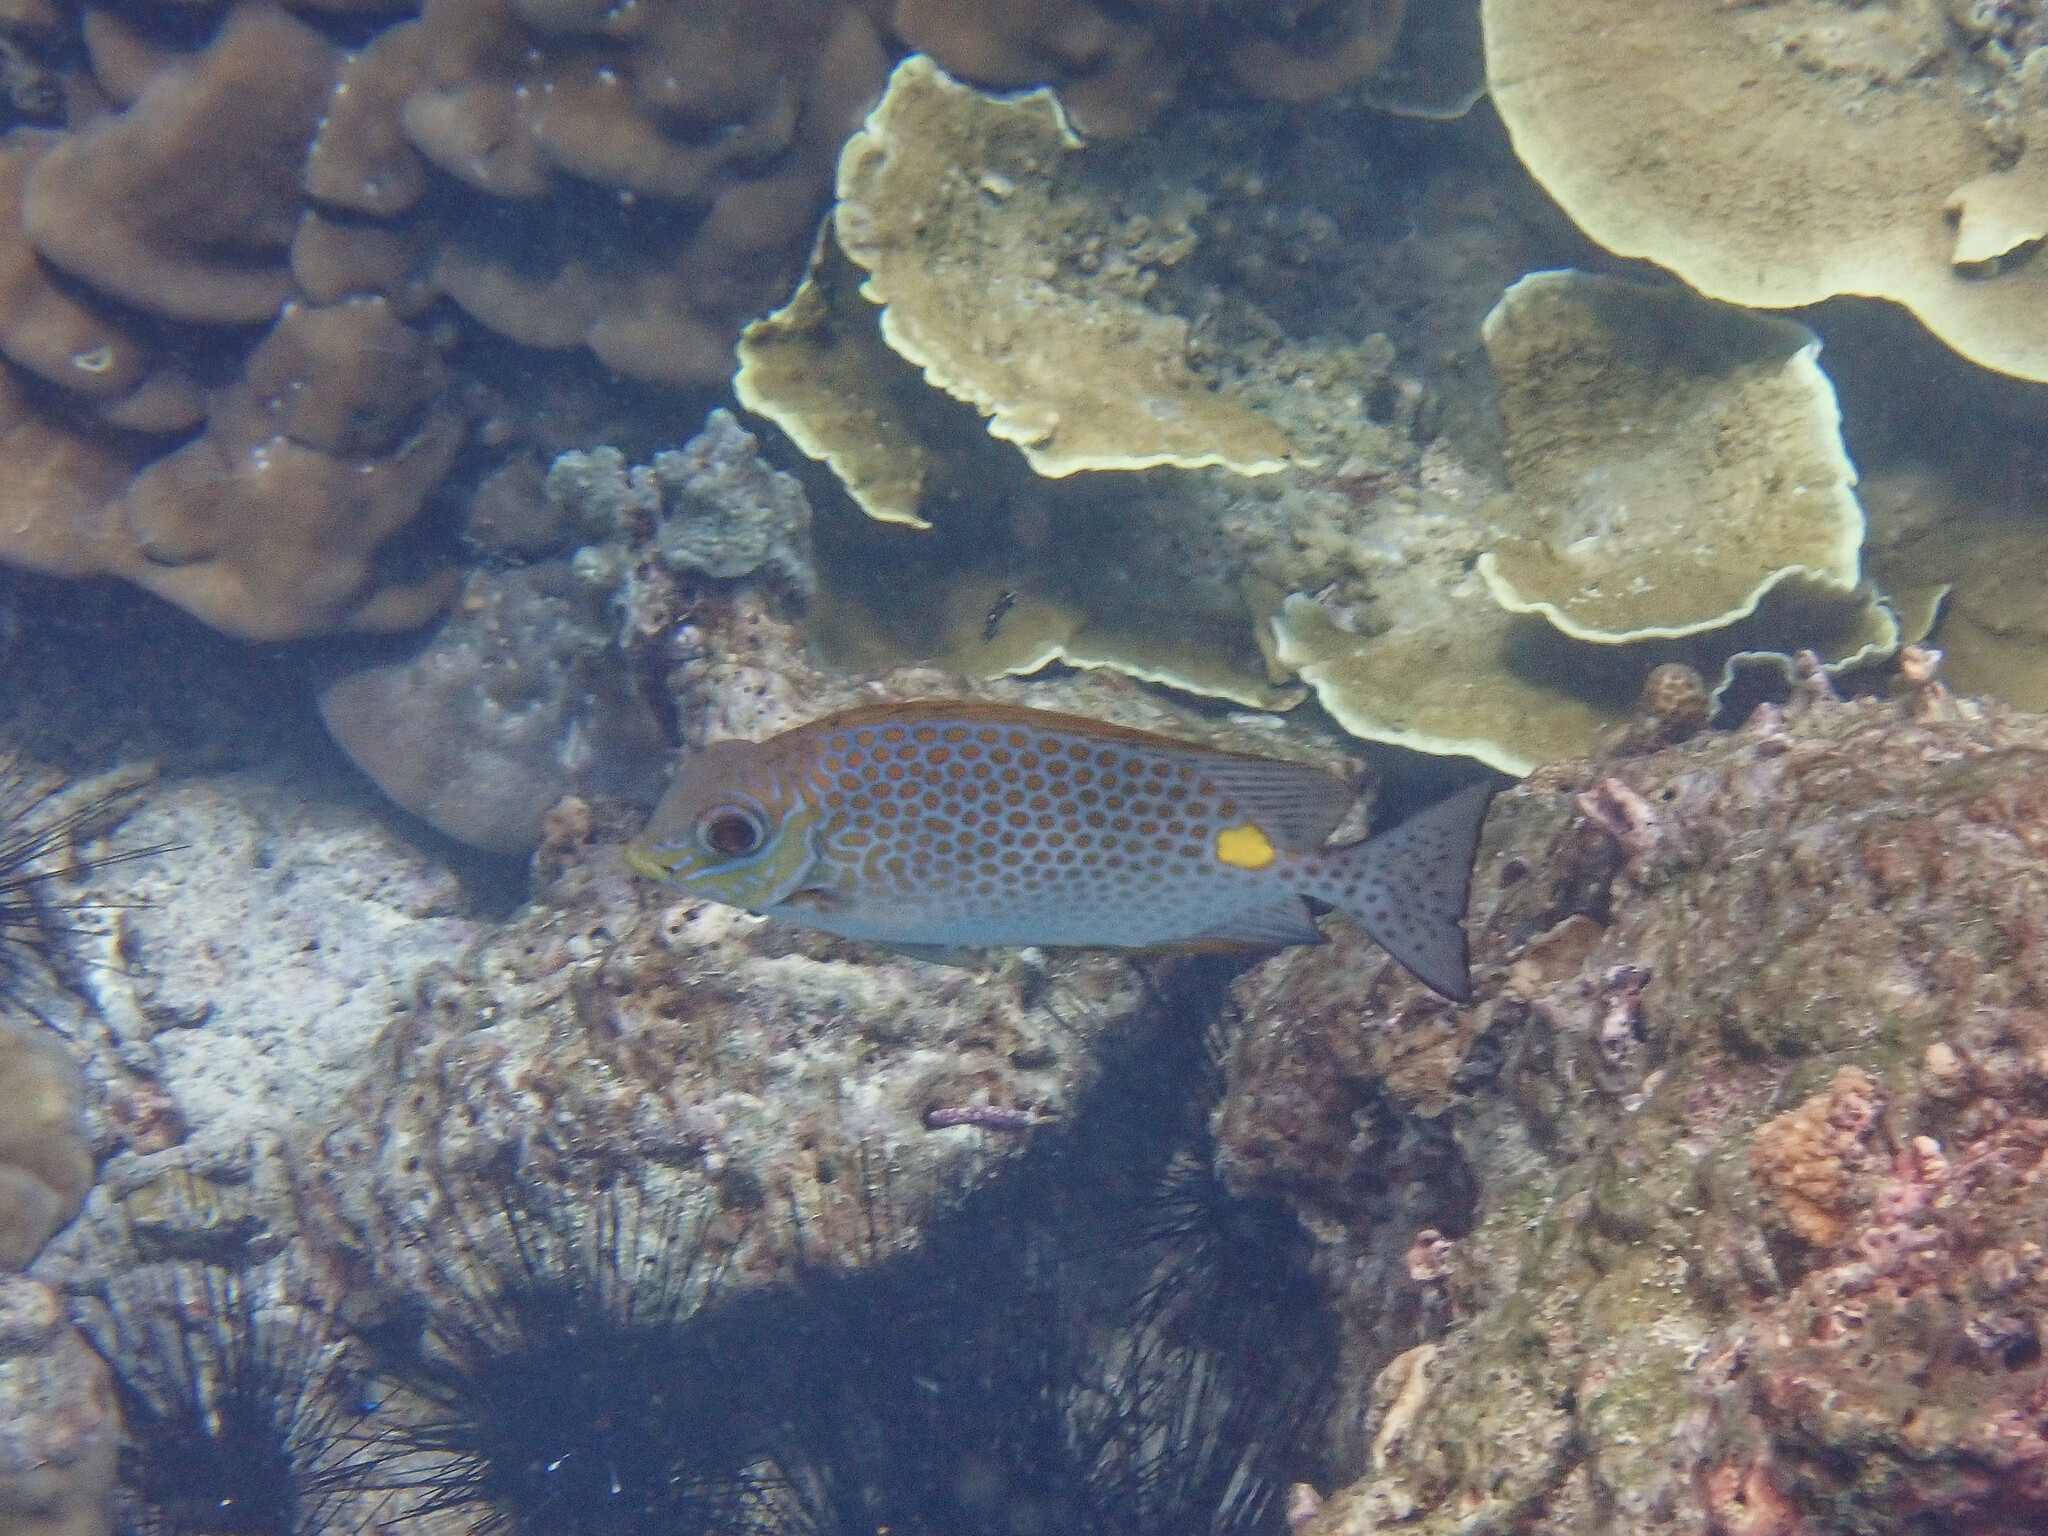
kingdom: Animalia
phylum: Chordata
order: Perciformes
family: Siganidae
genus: Siganus
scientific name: Siganus guttatus
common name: Golden rabbitfish
